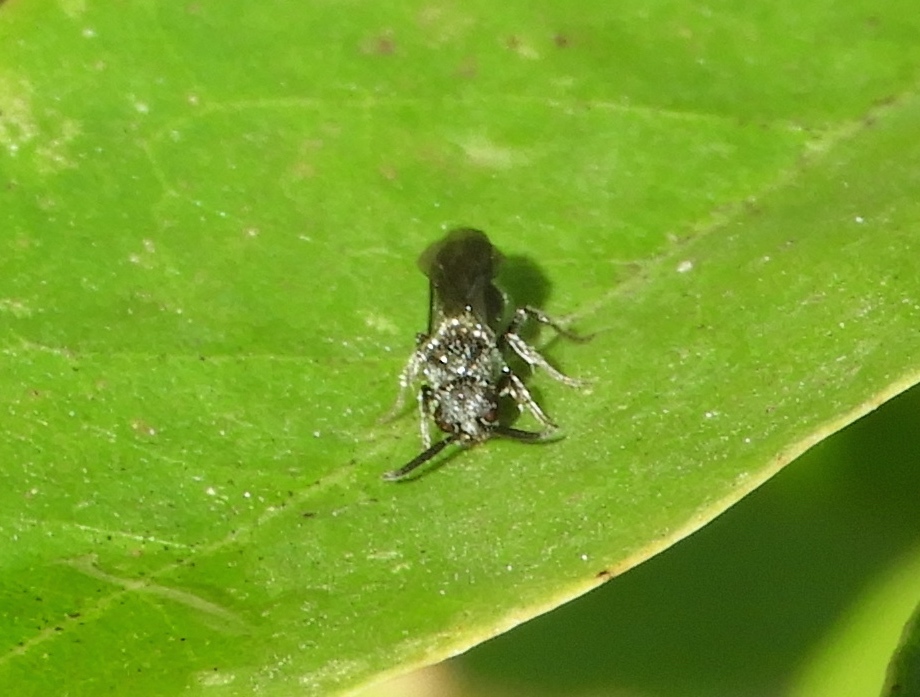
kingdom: Animalia
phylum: Arthropoda
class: Insecta
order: Hymenoptera
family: Mutillidae
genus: Ephuta
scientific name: Ephuta
